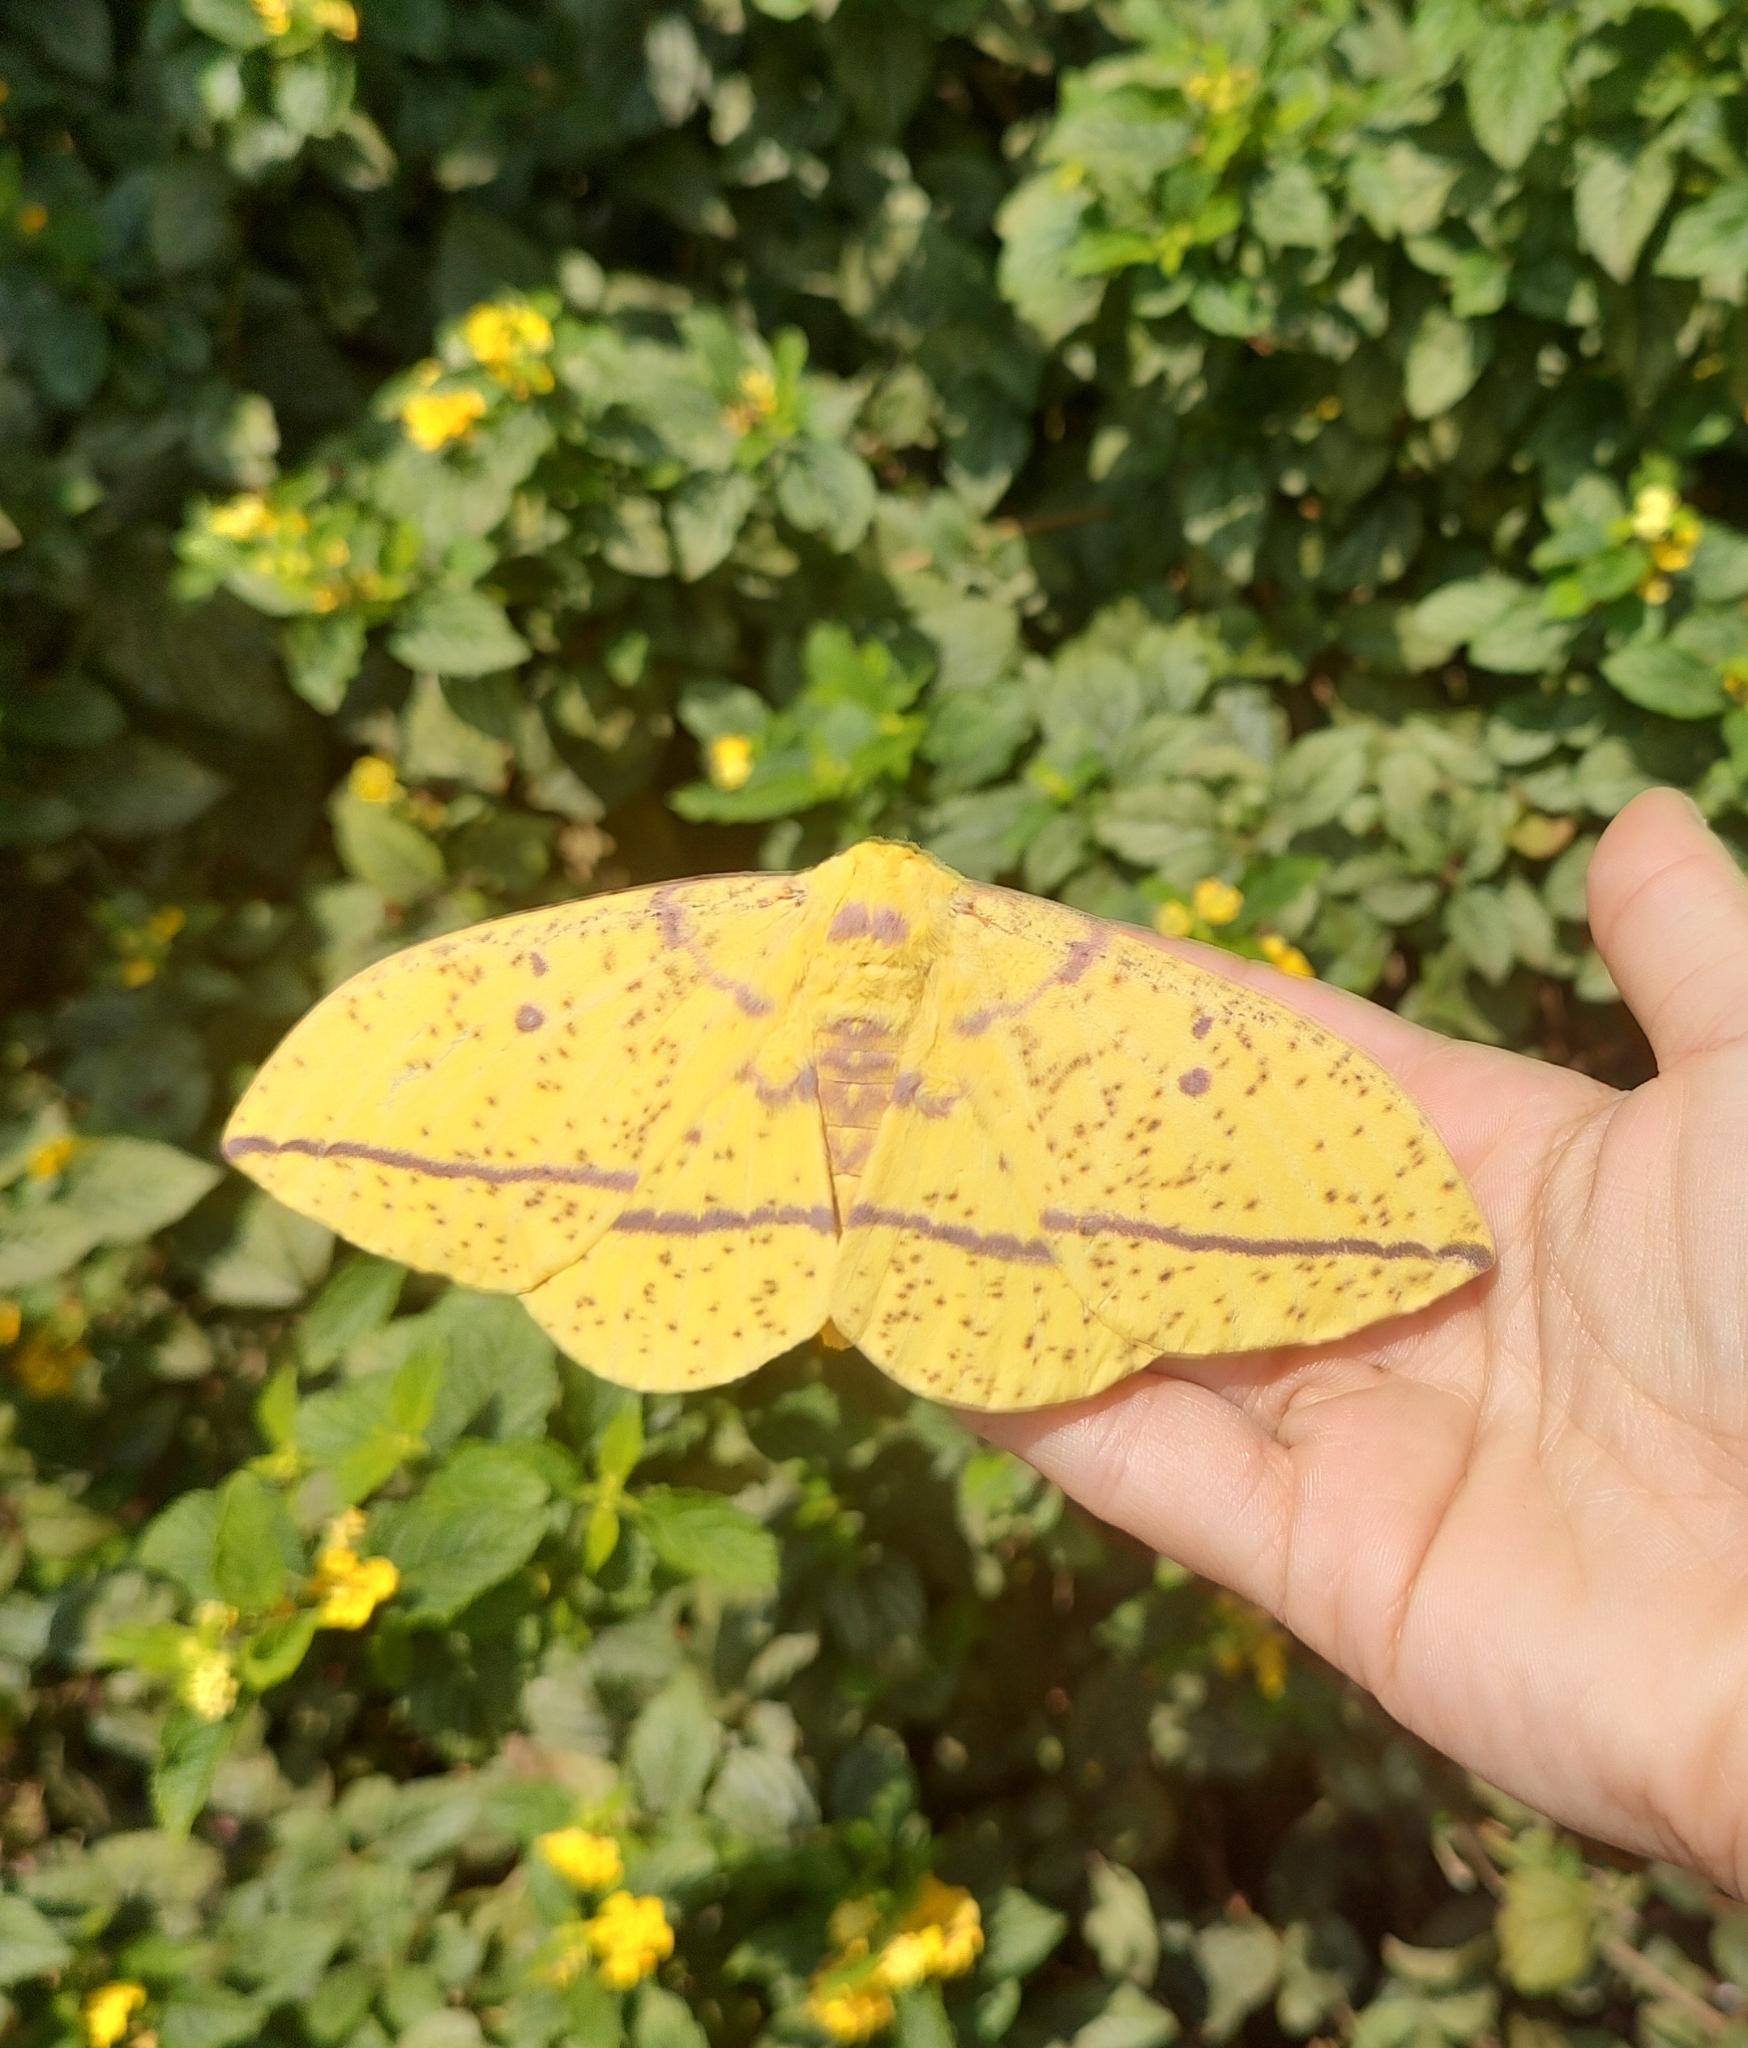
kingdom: Animalia
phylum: Arthropoda
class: Insecta
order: Lepidoptera
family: Saturniidae
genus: Eacles
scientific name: Eacles imperialis
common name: Imperial moth
